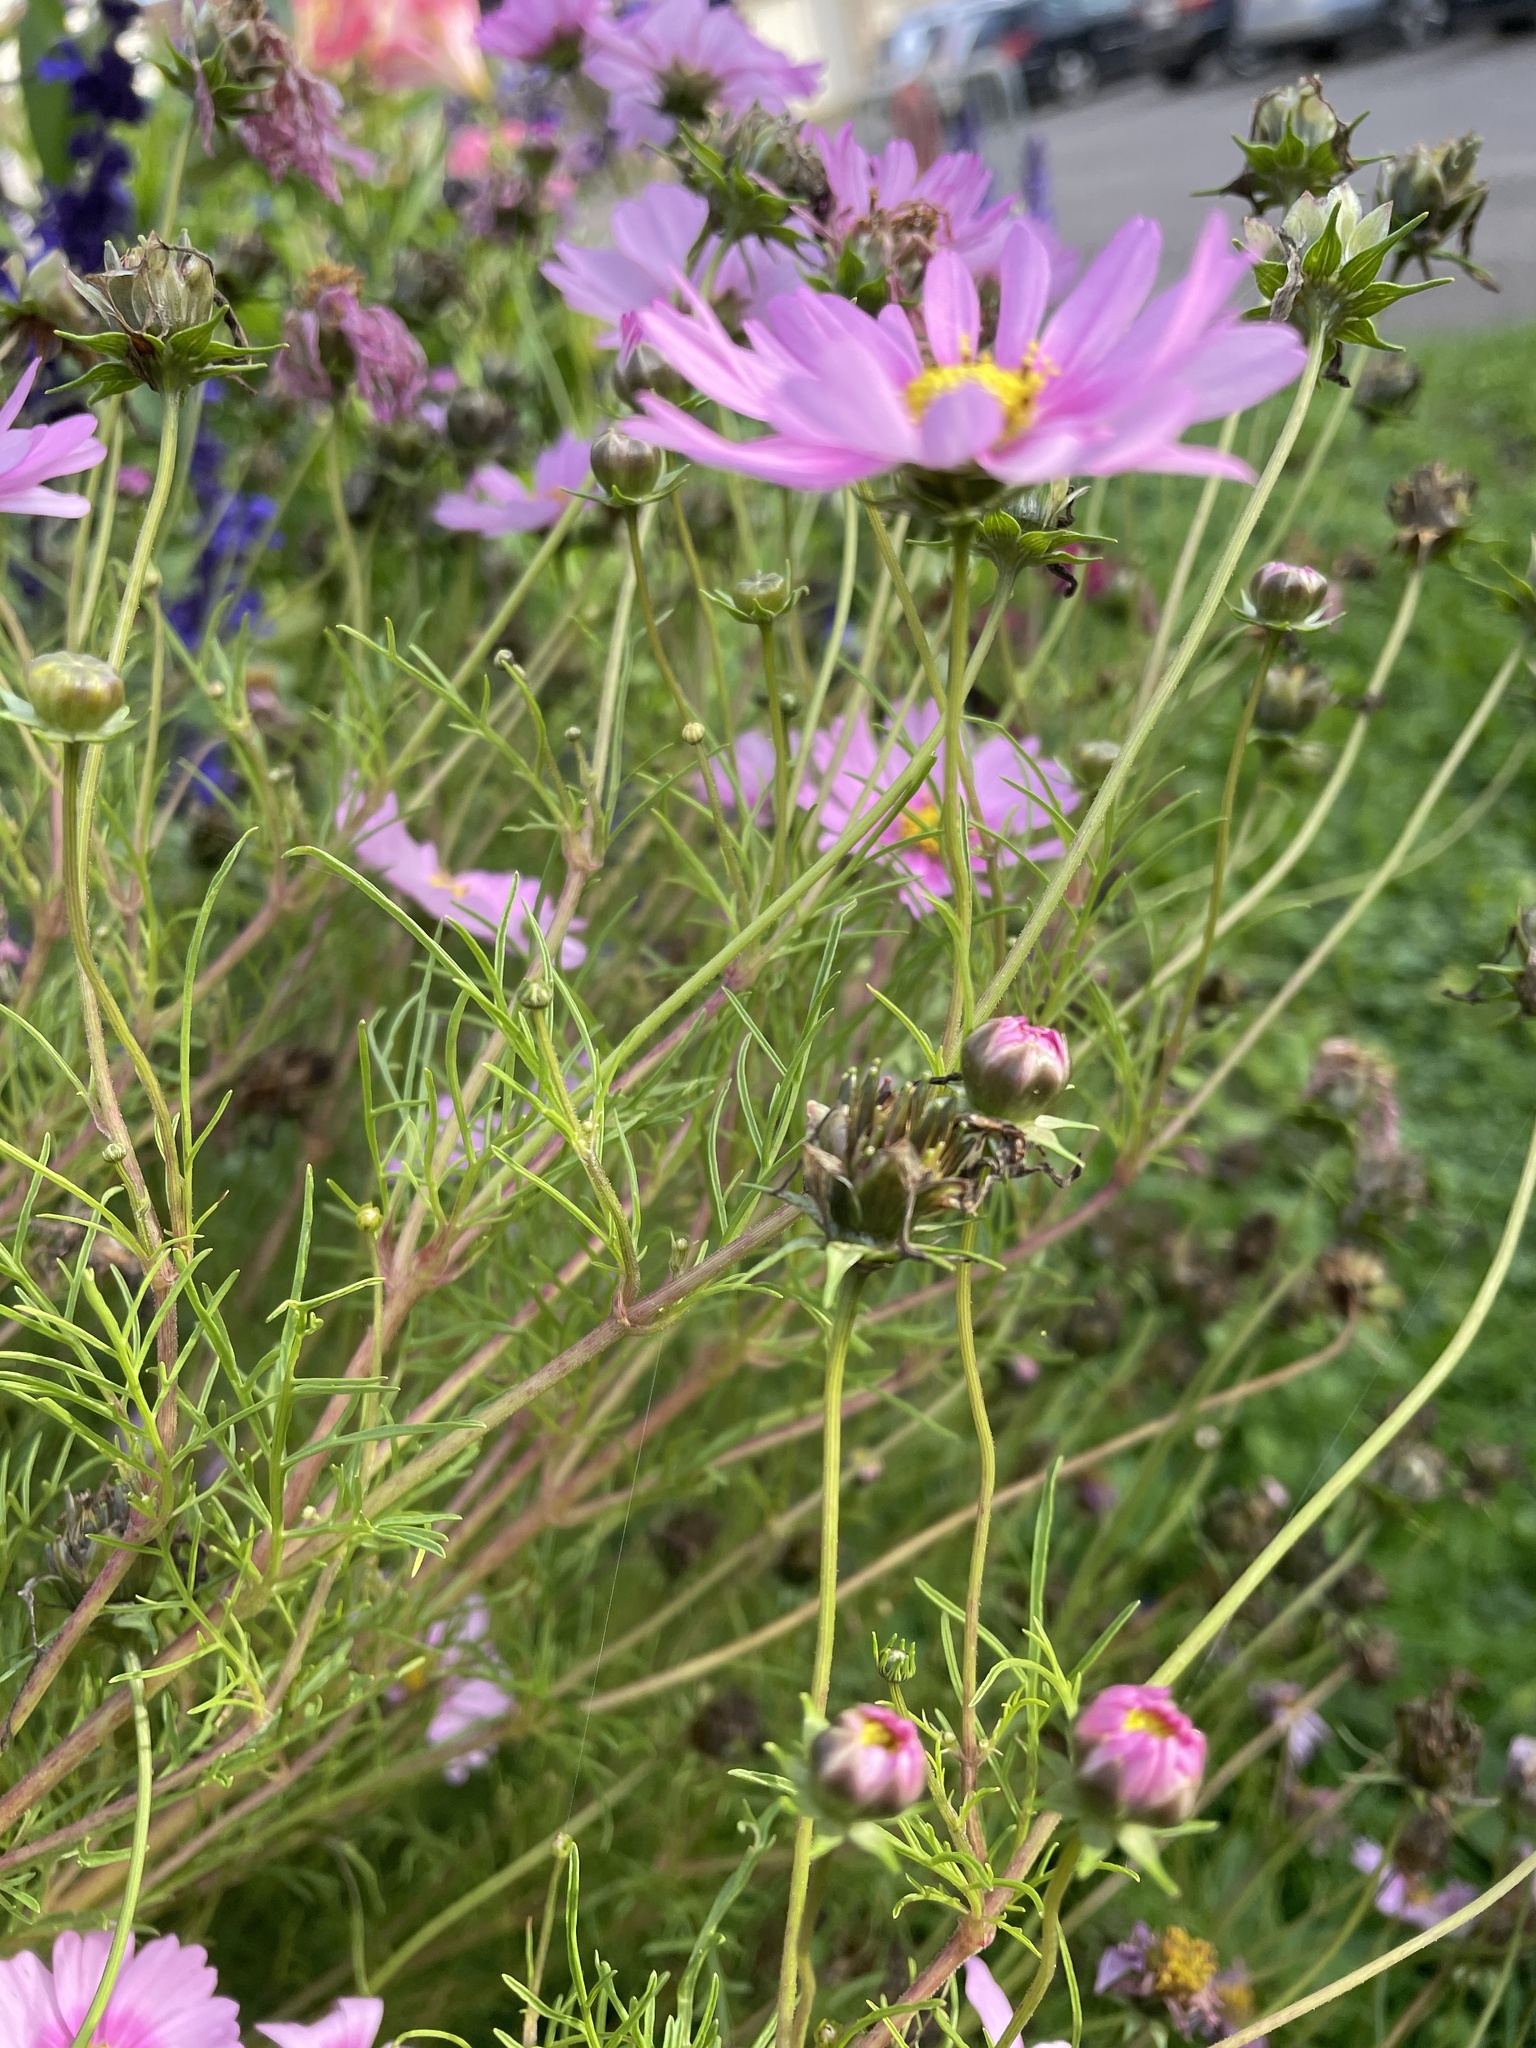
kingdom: Plantae
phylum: Tracheophyta
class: Magnoliopsida
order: Asterales
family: Asteraceae
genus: Cosmos
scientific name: Cosmos bipinnatus
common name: Garden cosmos
